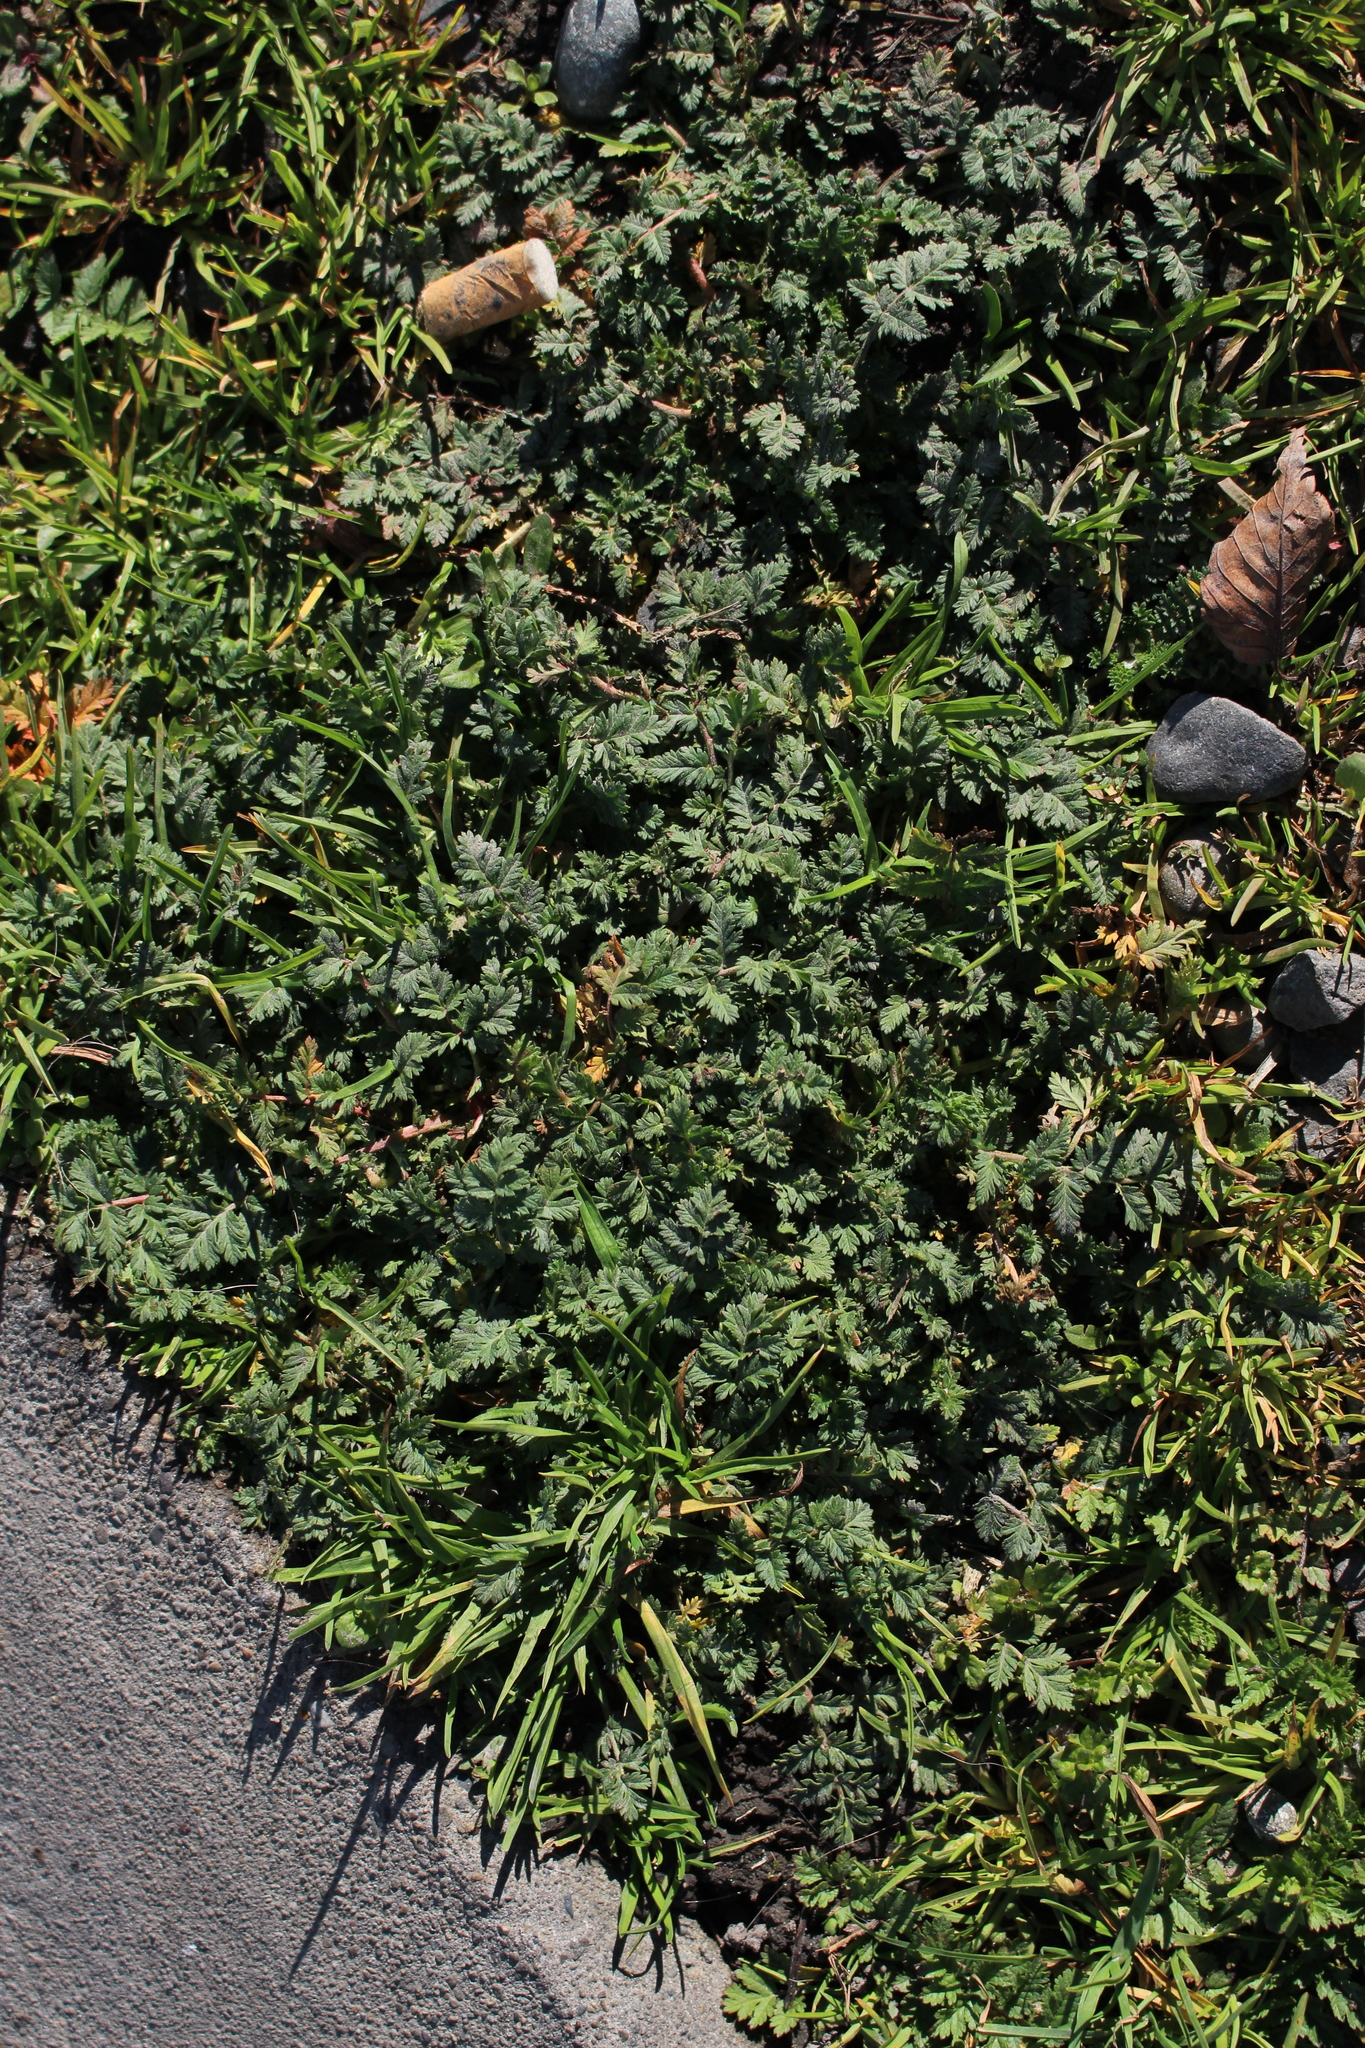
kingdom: Plantae
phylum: Tracheophyta
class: Magnoliopsida
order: Geraniales
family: Geraniaceae
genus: Erodium
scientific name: Erodium cicutarium
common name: Common stork's-bill
